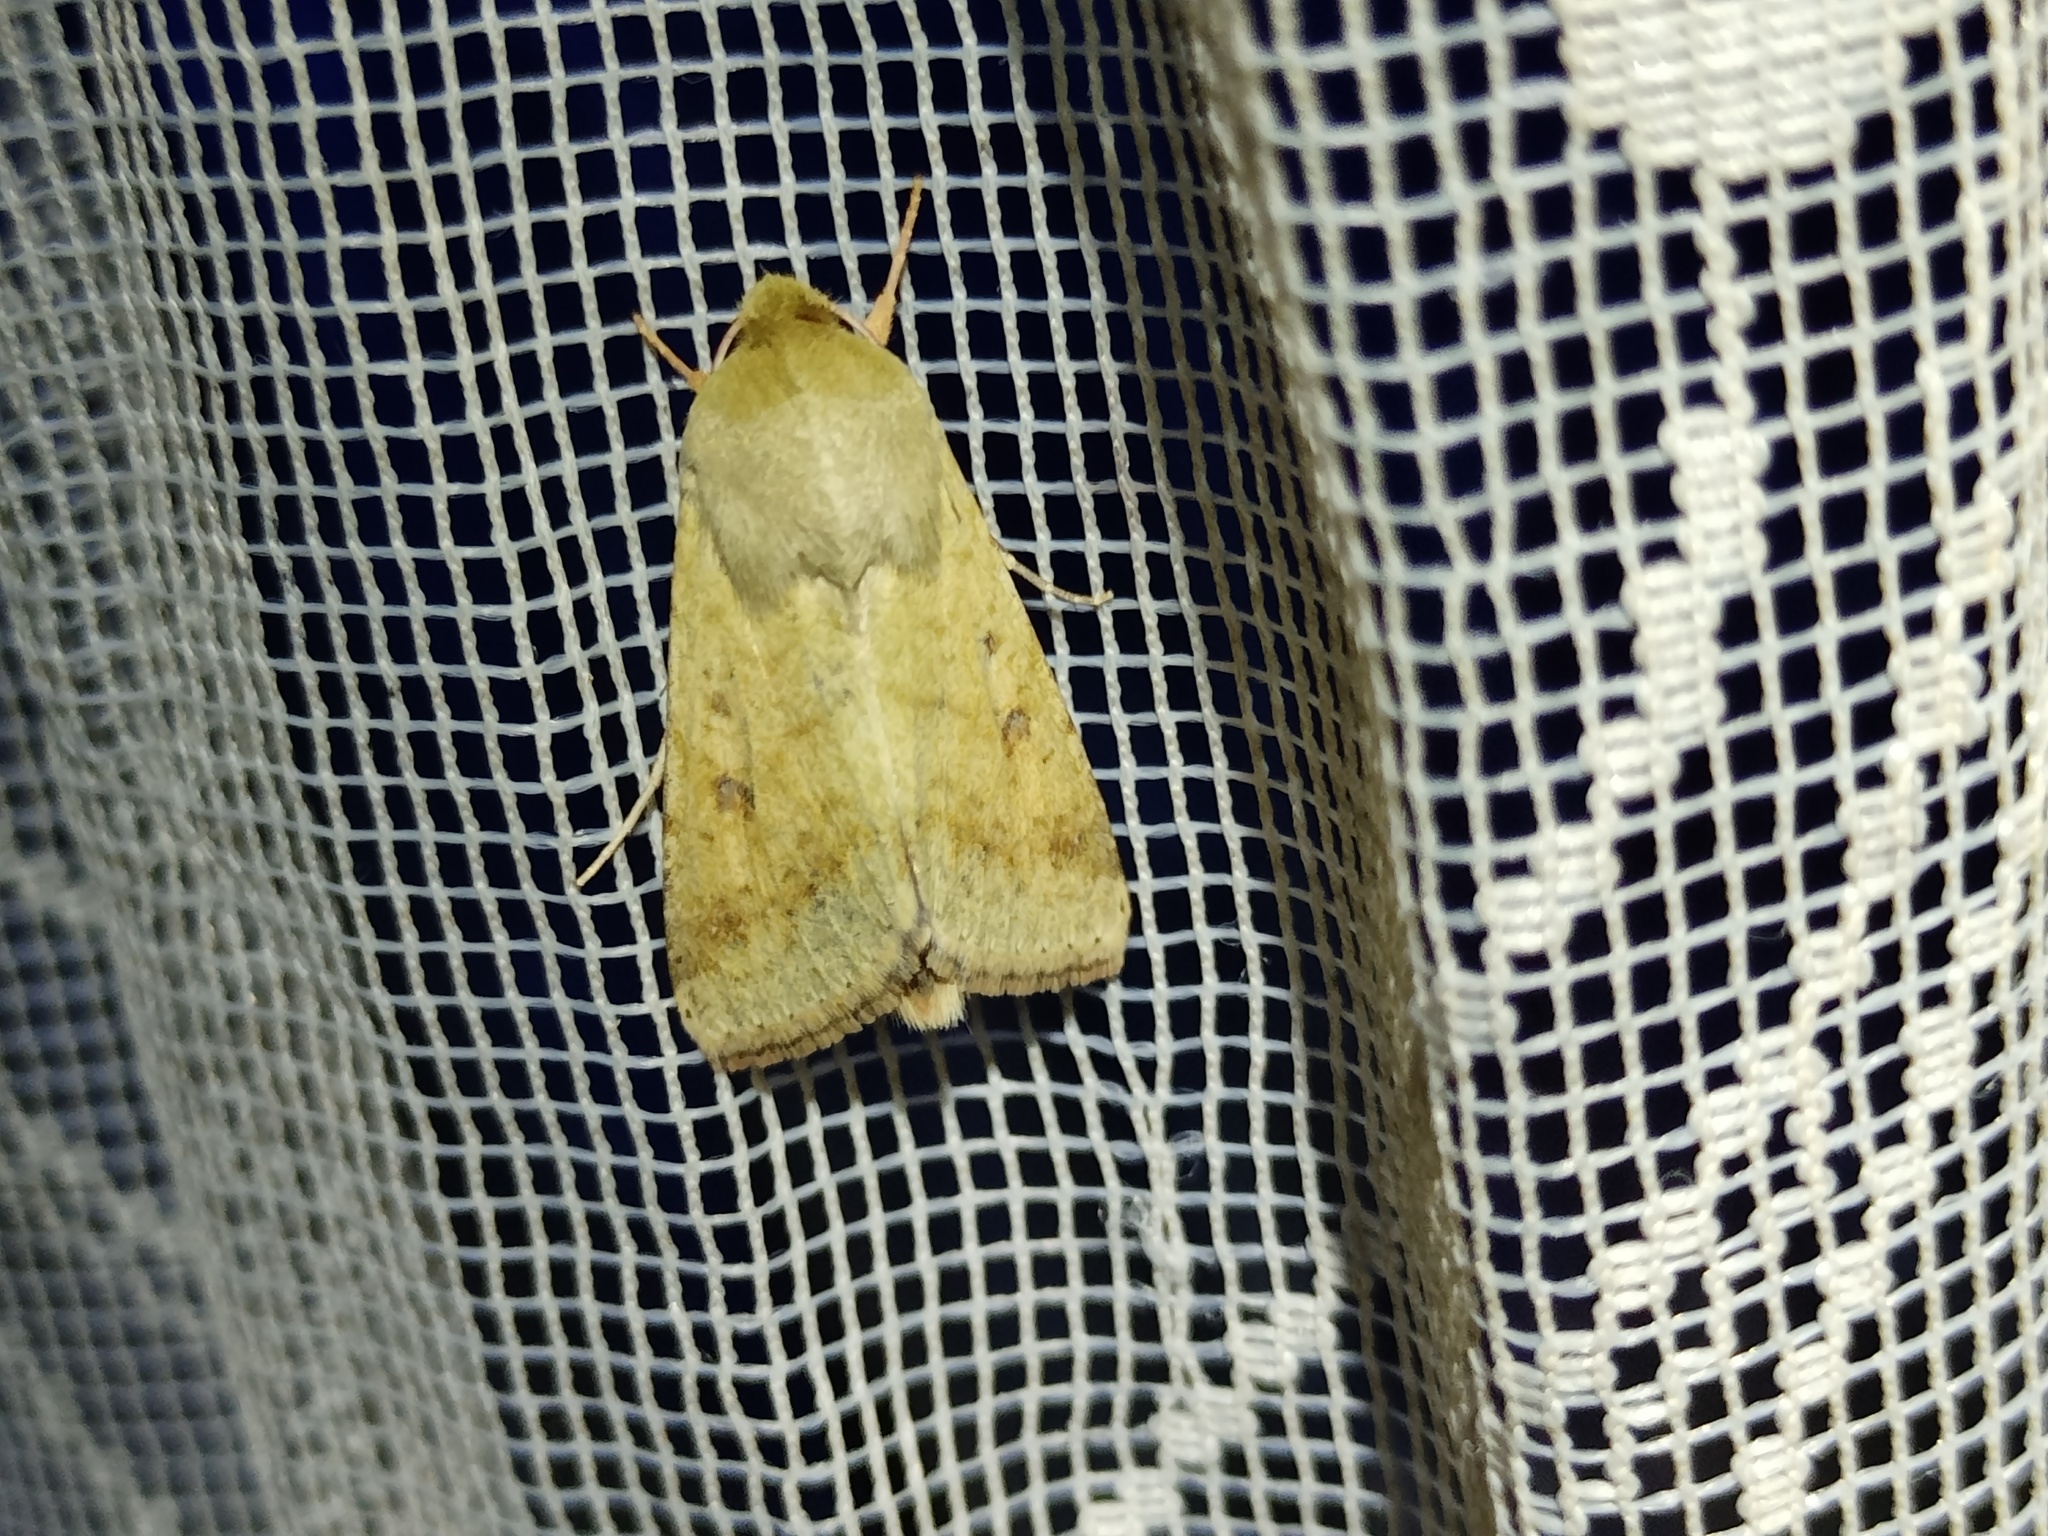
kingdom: Animalia
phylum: Arthropoda
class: Insecta
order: Lepidoptera
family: Noctuidae
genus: Helicoverpa
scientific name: Helicoverpa armigera
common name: Cotton bollworm
